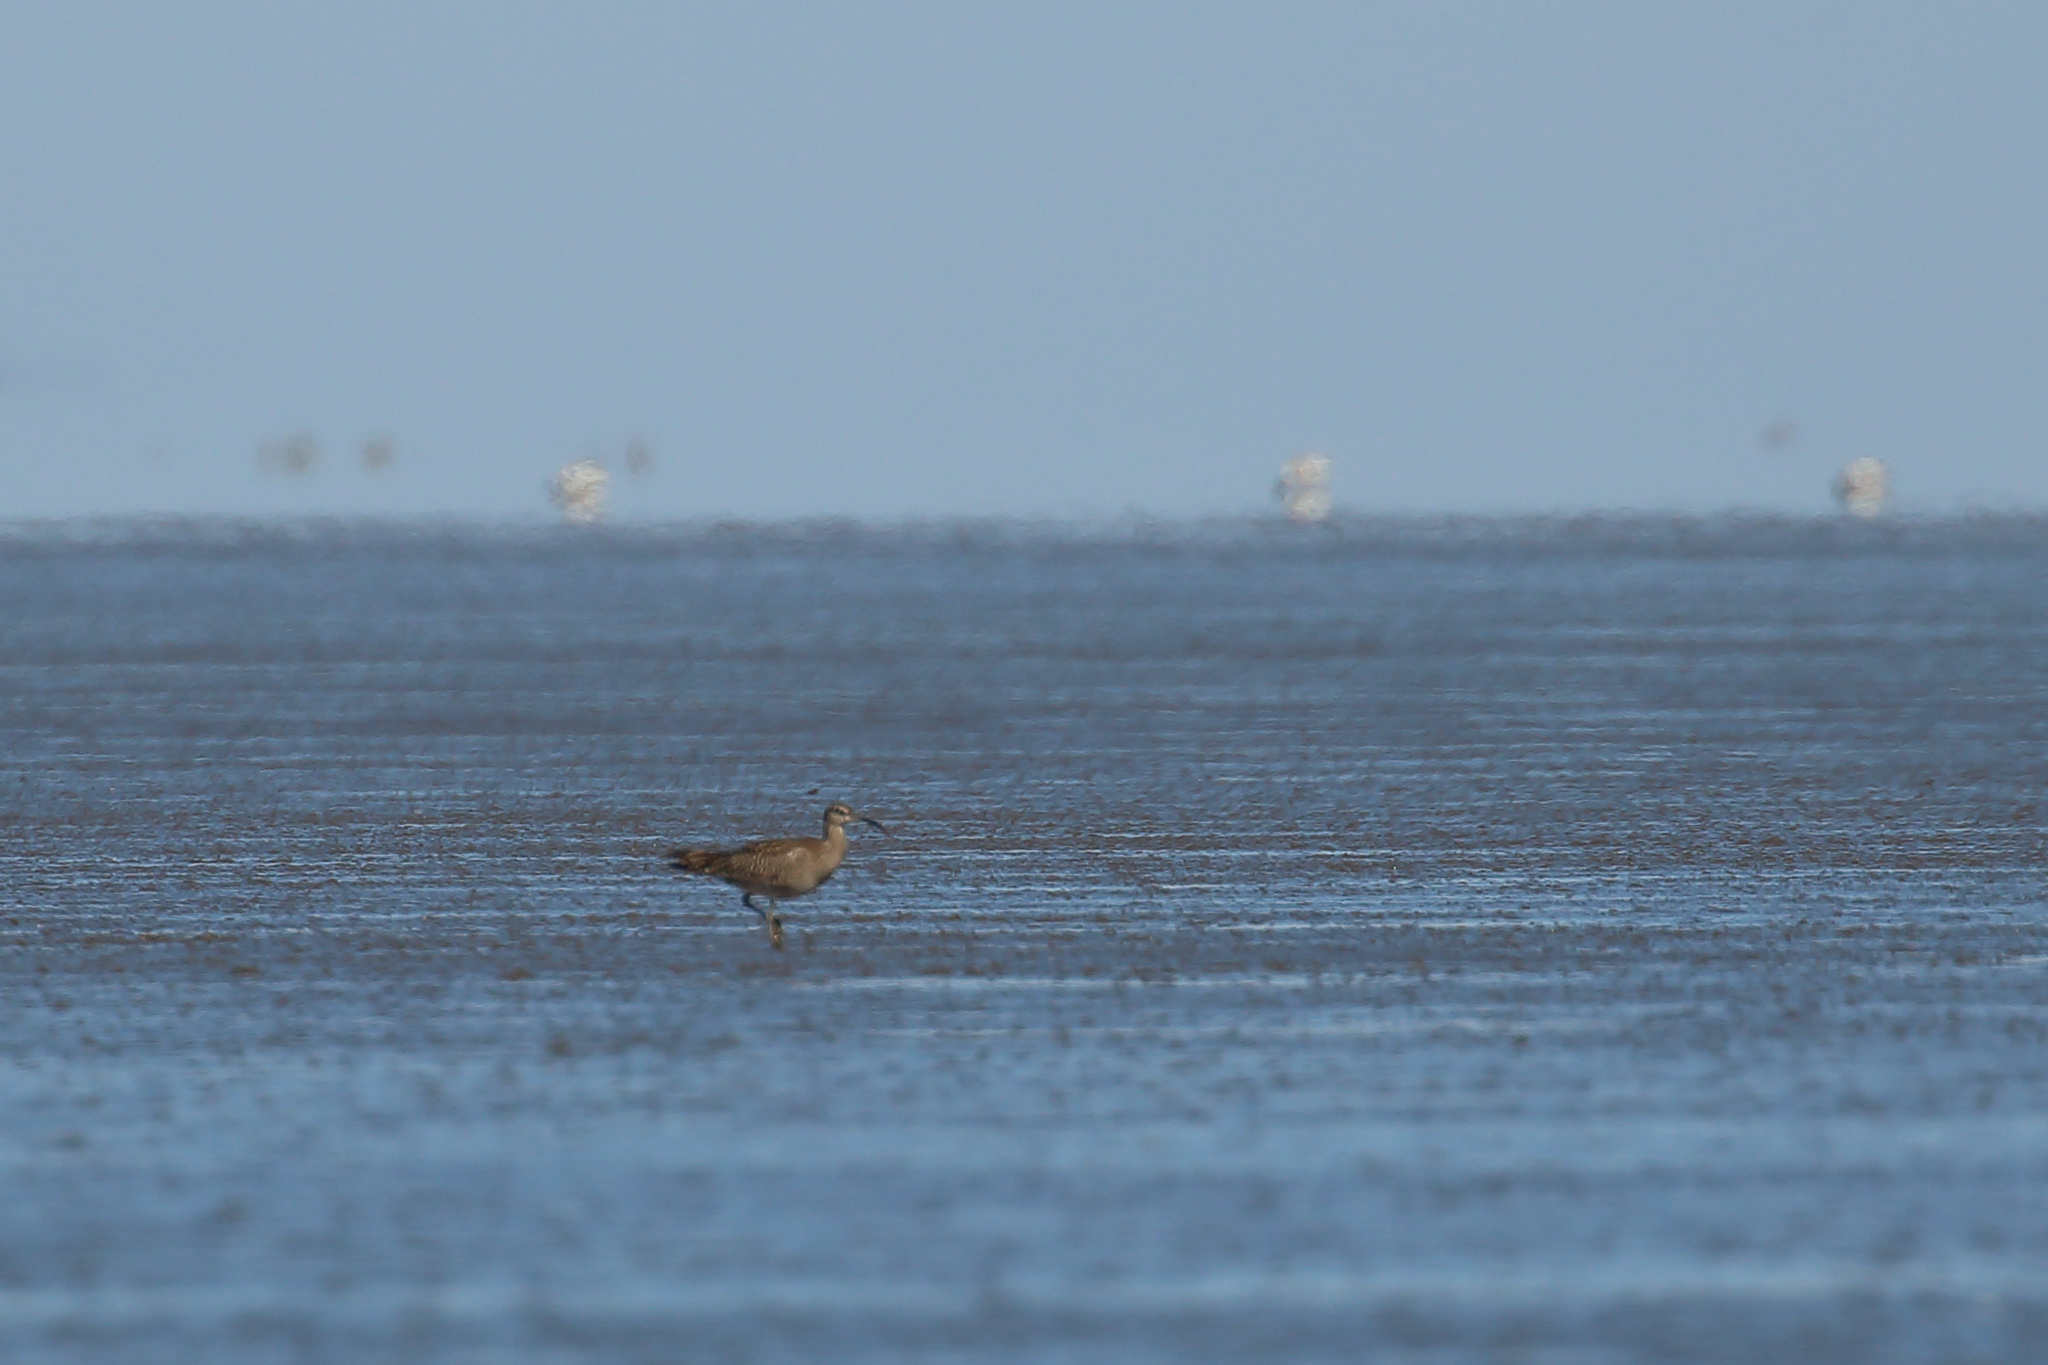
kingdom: Animalia
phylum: Chordata
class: Aves
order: Charadriiformes
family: Scolopacidae
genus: Numenius
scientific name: Numenius phaeopus
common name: Whimbrel
